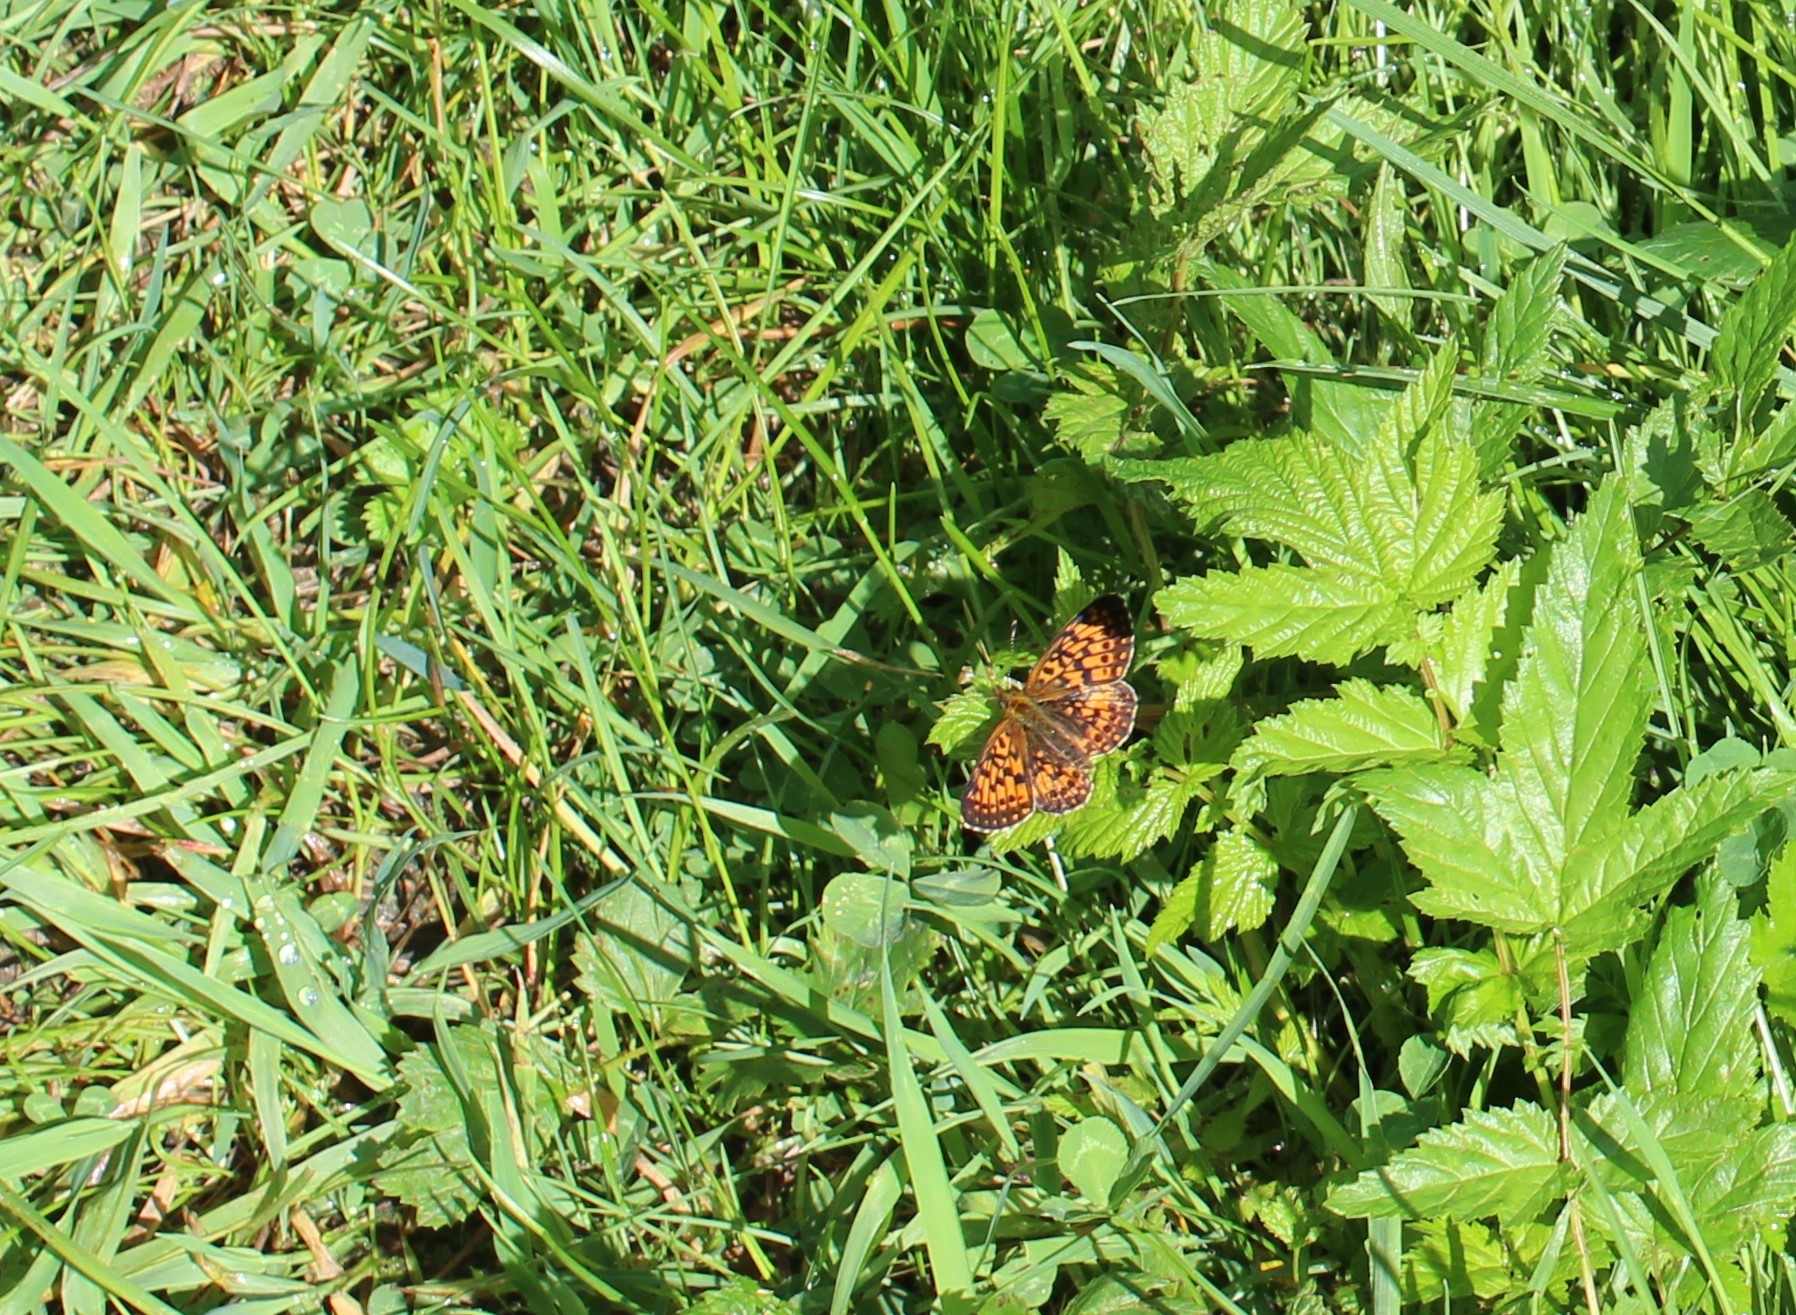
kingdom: Animalia
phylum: Arthropoda
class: Insecta
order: Lepidoptera
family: Nymphalidae
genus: Boloria
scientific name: Boloria selene
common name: Small pearl-bordered fritillary
